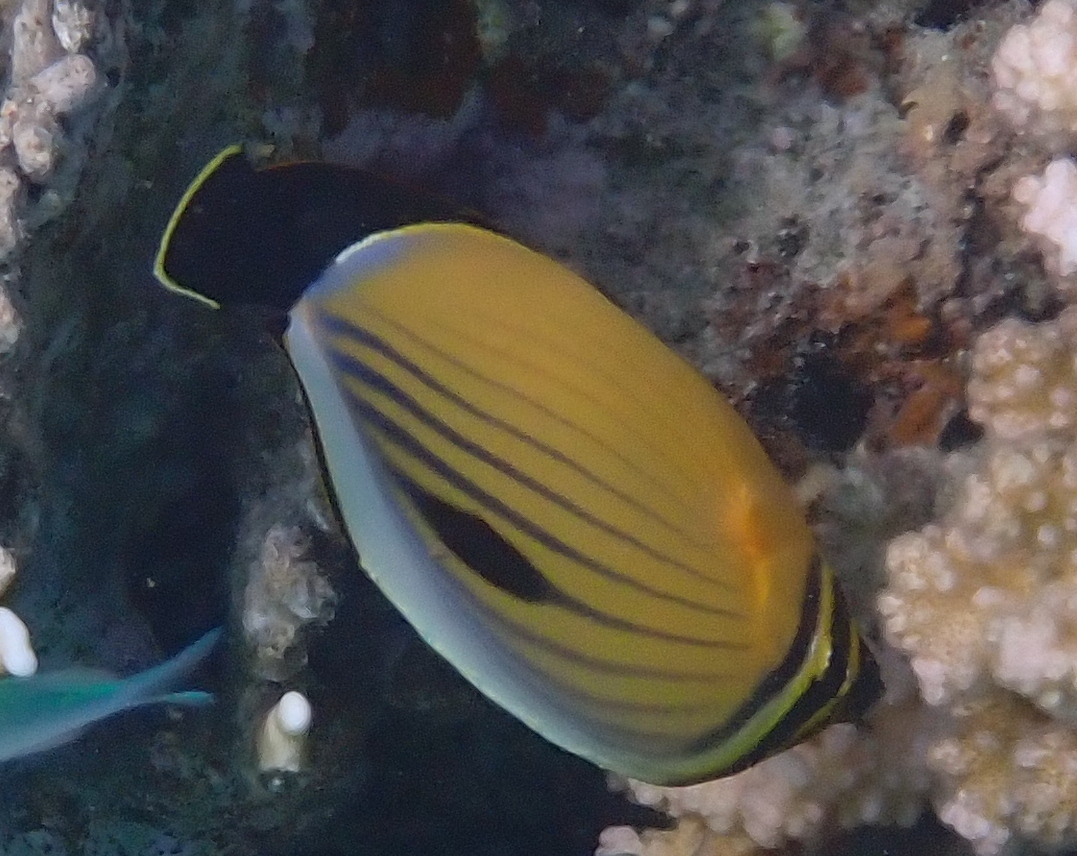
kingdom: Animalia
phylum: Chordata
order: Perciformes
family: Chaetodontidae
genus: Chaetodon
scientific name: Chaetodon austriacus
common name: Exquisite butterflyfish
